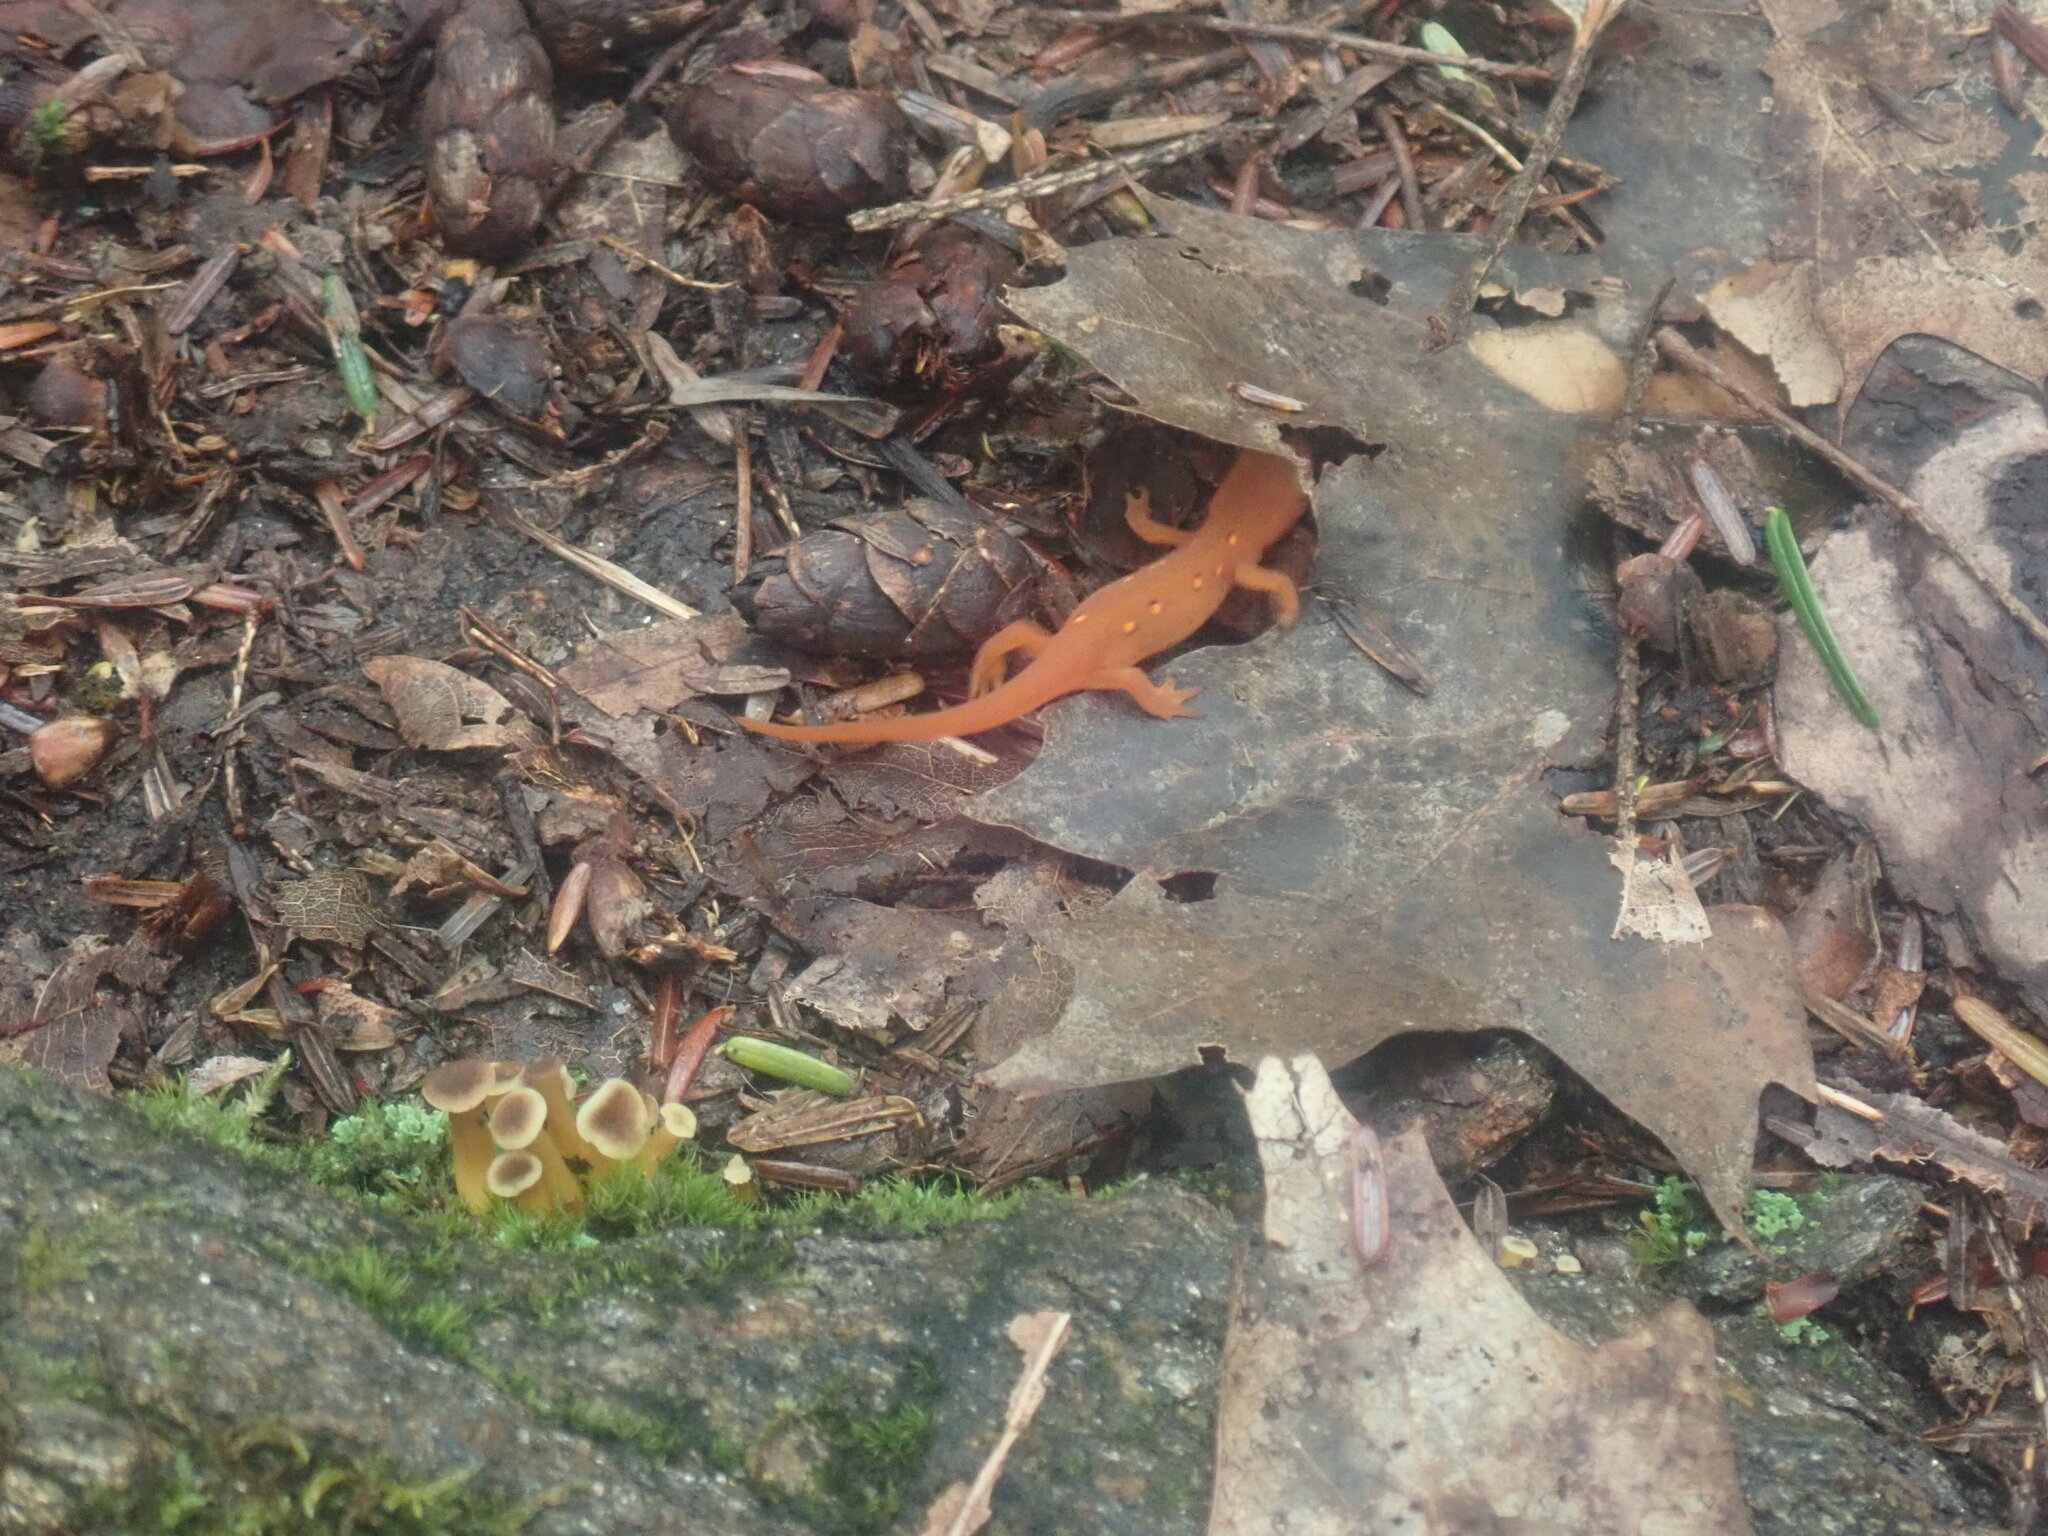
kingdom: Animalia
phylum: Chordata
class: Amphibia
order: Caudata
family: Salamandridae
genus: Notophthalmus
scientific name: Notophthalmus viridescens
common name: Eastern newt
